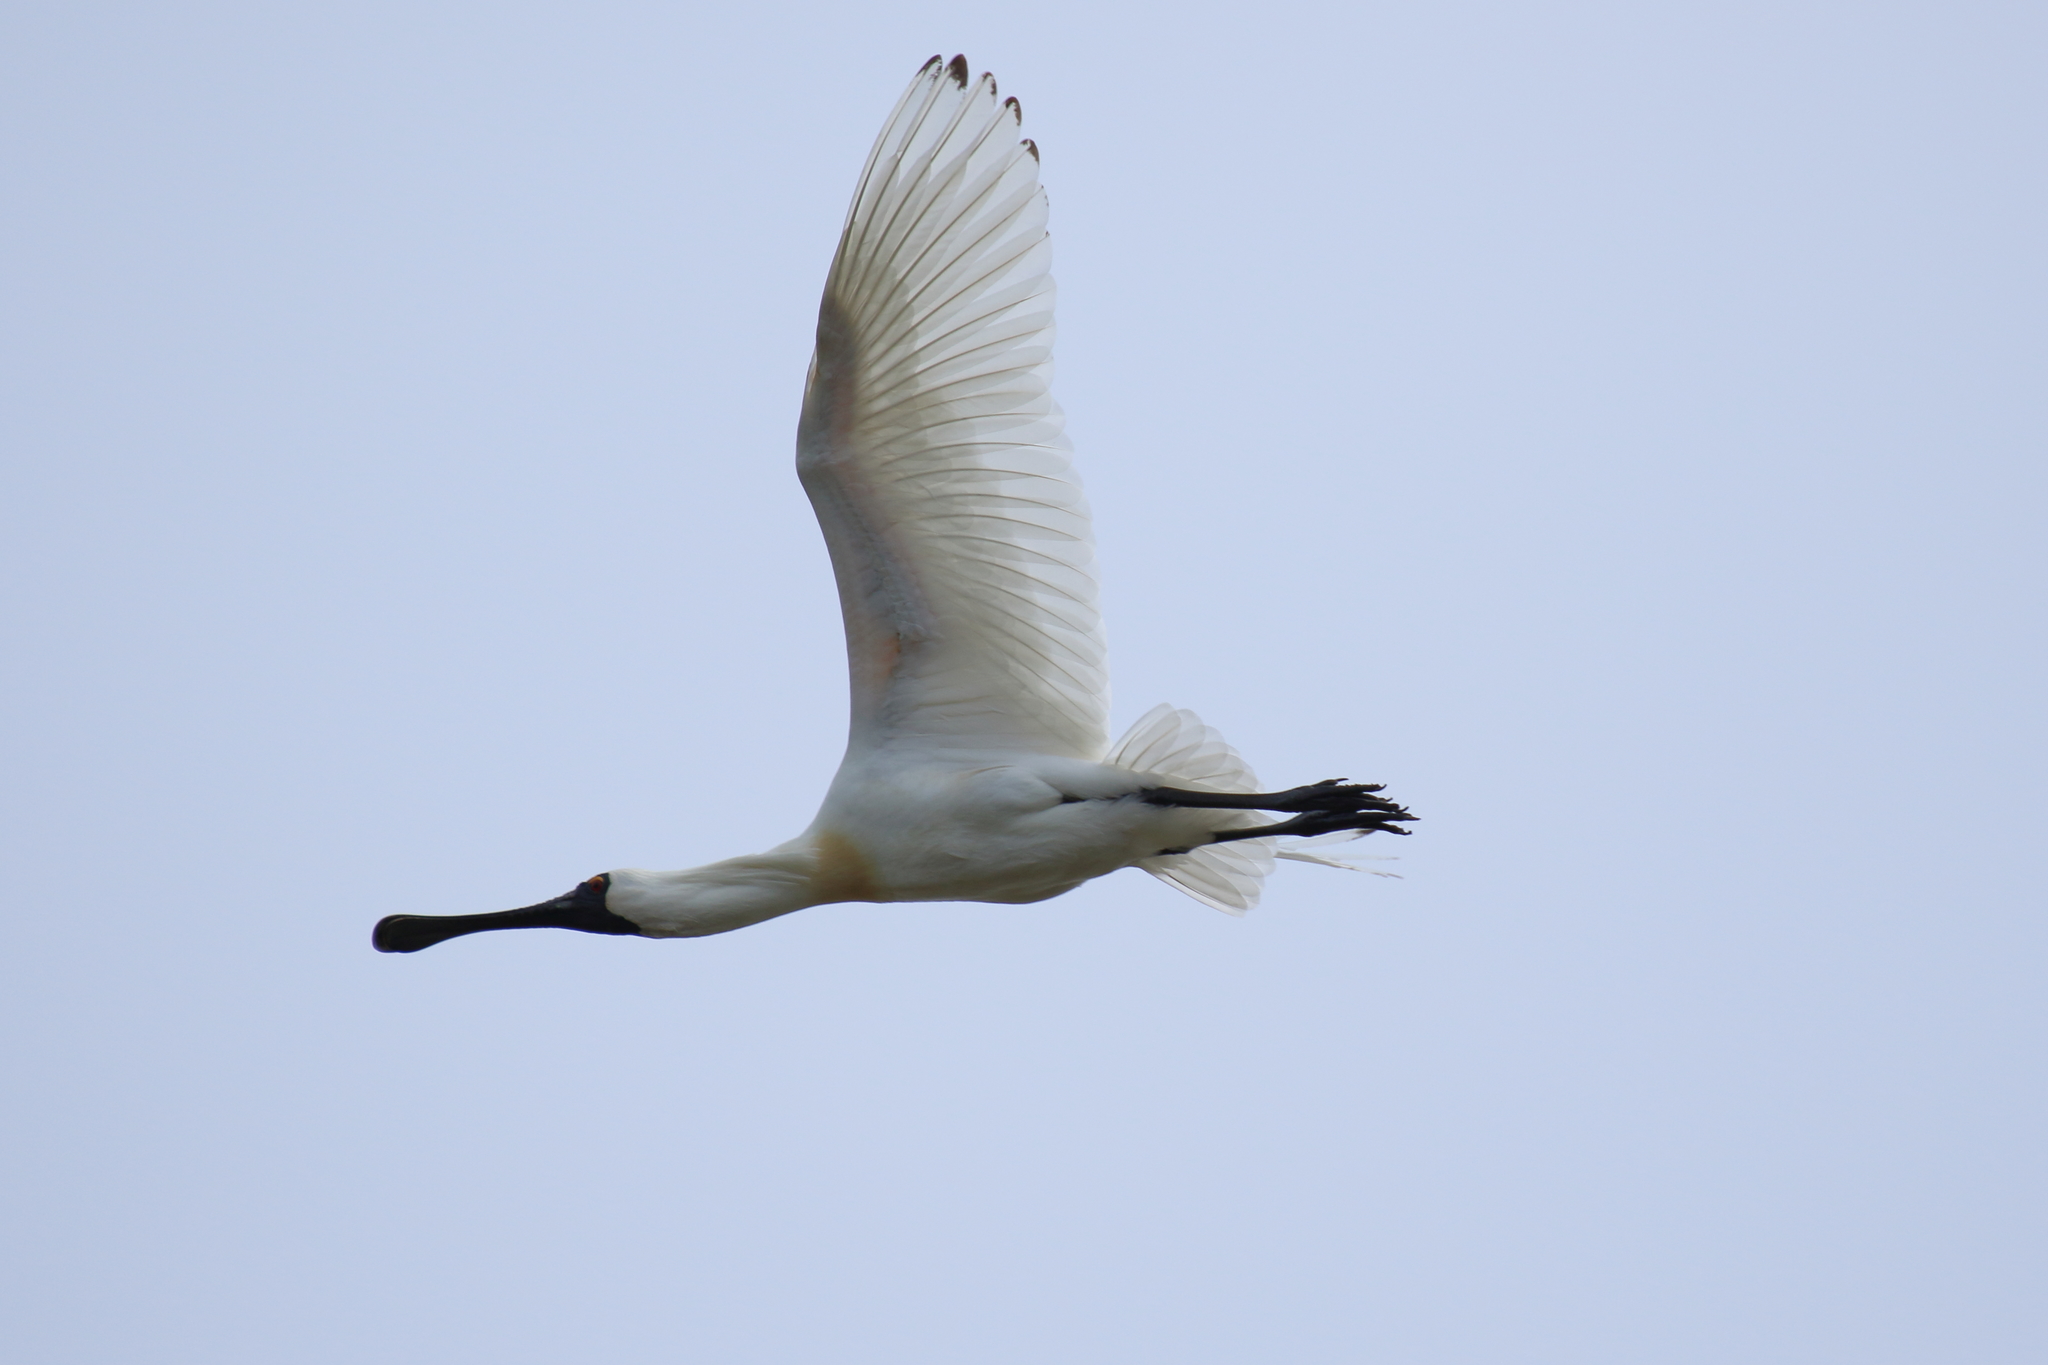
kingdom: Animalia
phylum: Chordata
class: Aves
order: Pelecaniformes
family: Threskiornithidae
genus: Platalea
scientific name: Platalea regia
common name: Royal spoonbill
